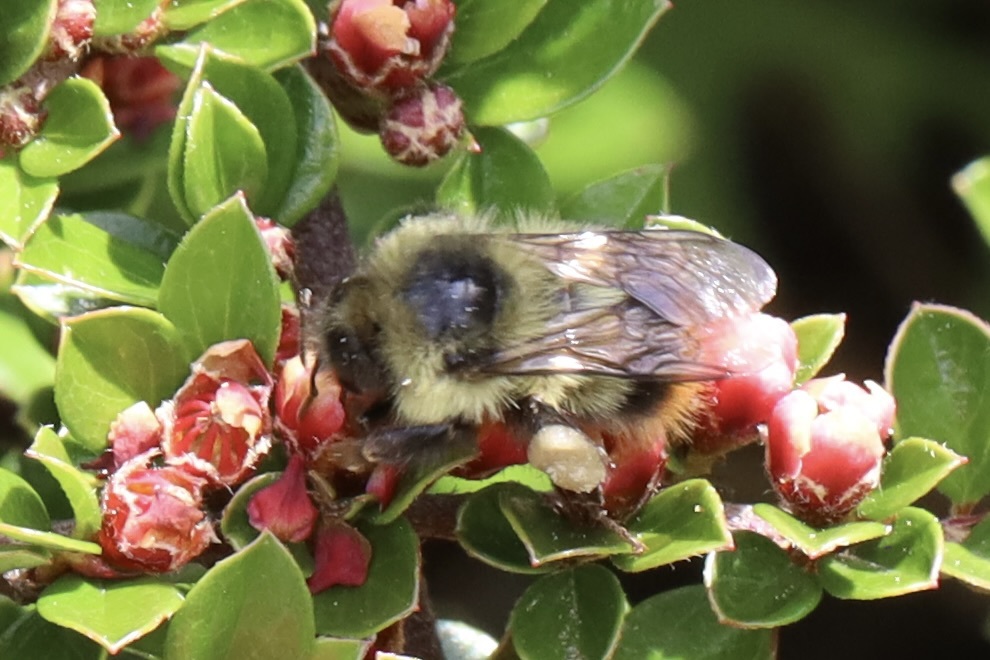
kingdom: Animalia
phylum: Arthropoda
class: Insecta
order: Hymenoptera
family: Apidae
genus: Bombus
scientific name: Bombus mixtus
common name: Fuzzy-horned bumble bee
